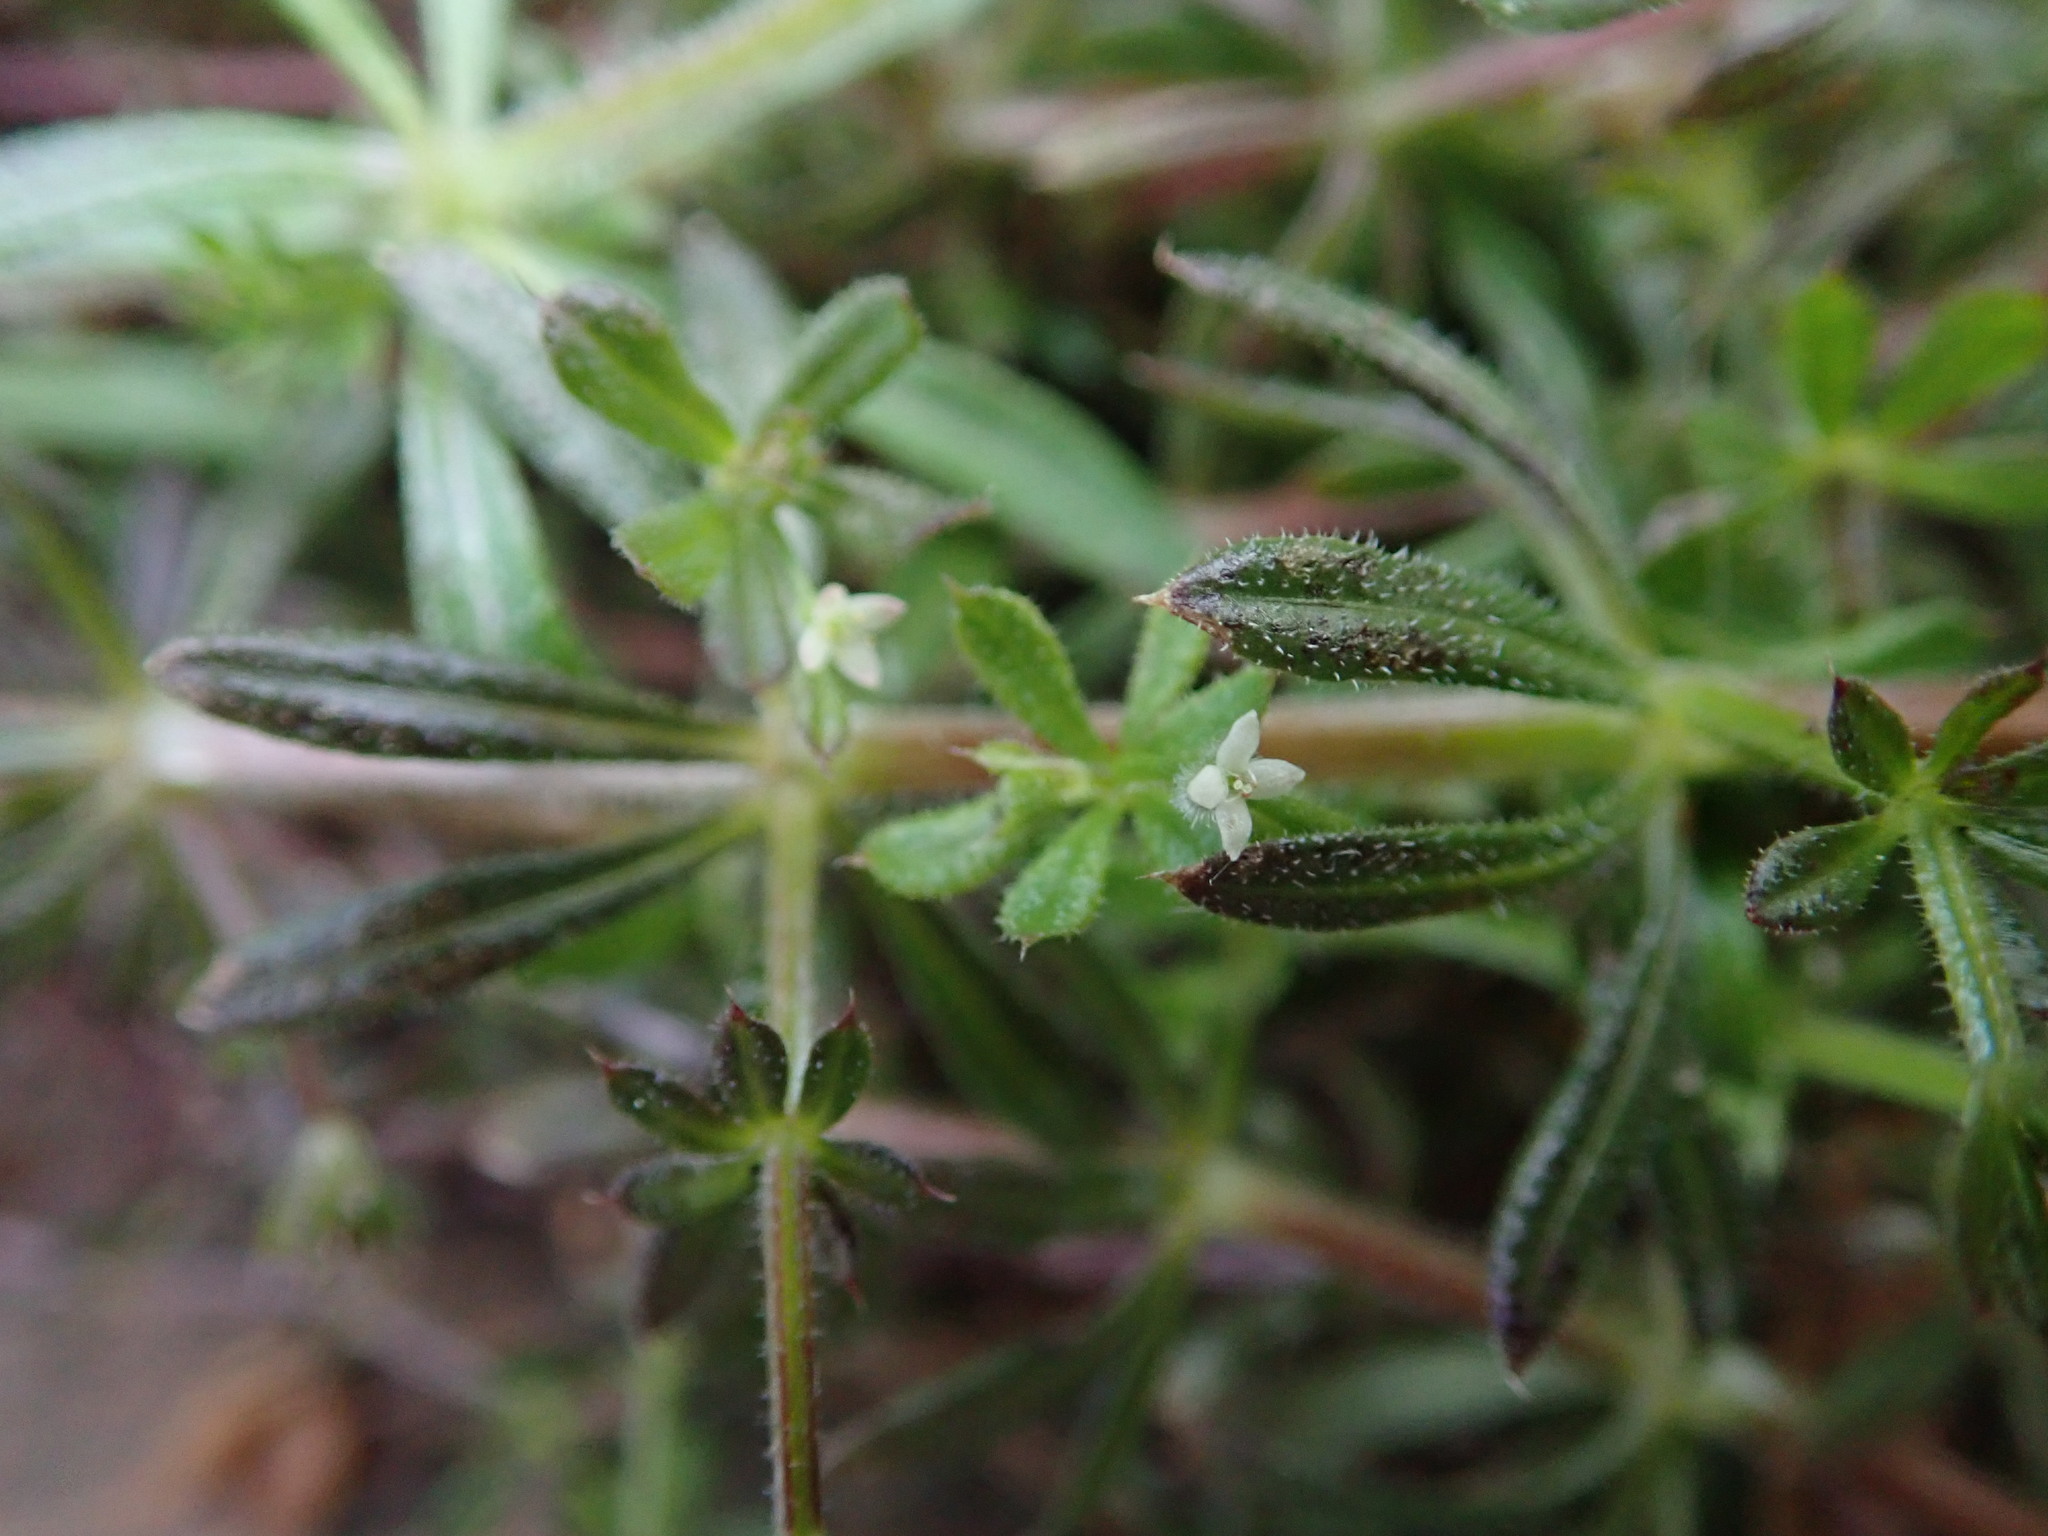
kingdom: Plantae
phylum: Tracheophyta
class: Magnoliopsida
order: Gentianales
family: Rubiaceae
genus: Galium
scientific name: Galium aparine
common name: Cleavers
